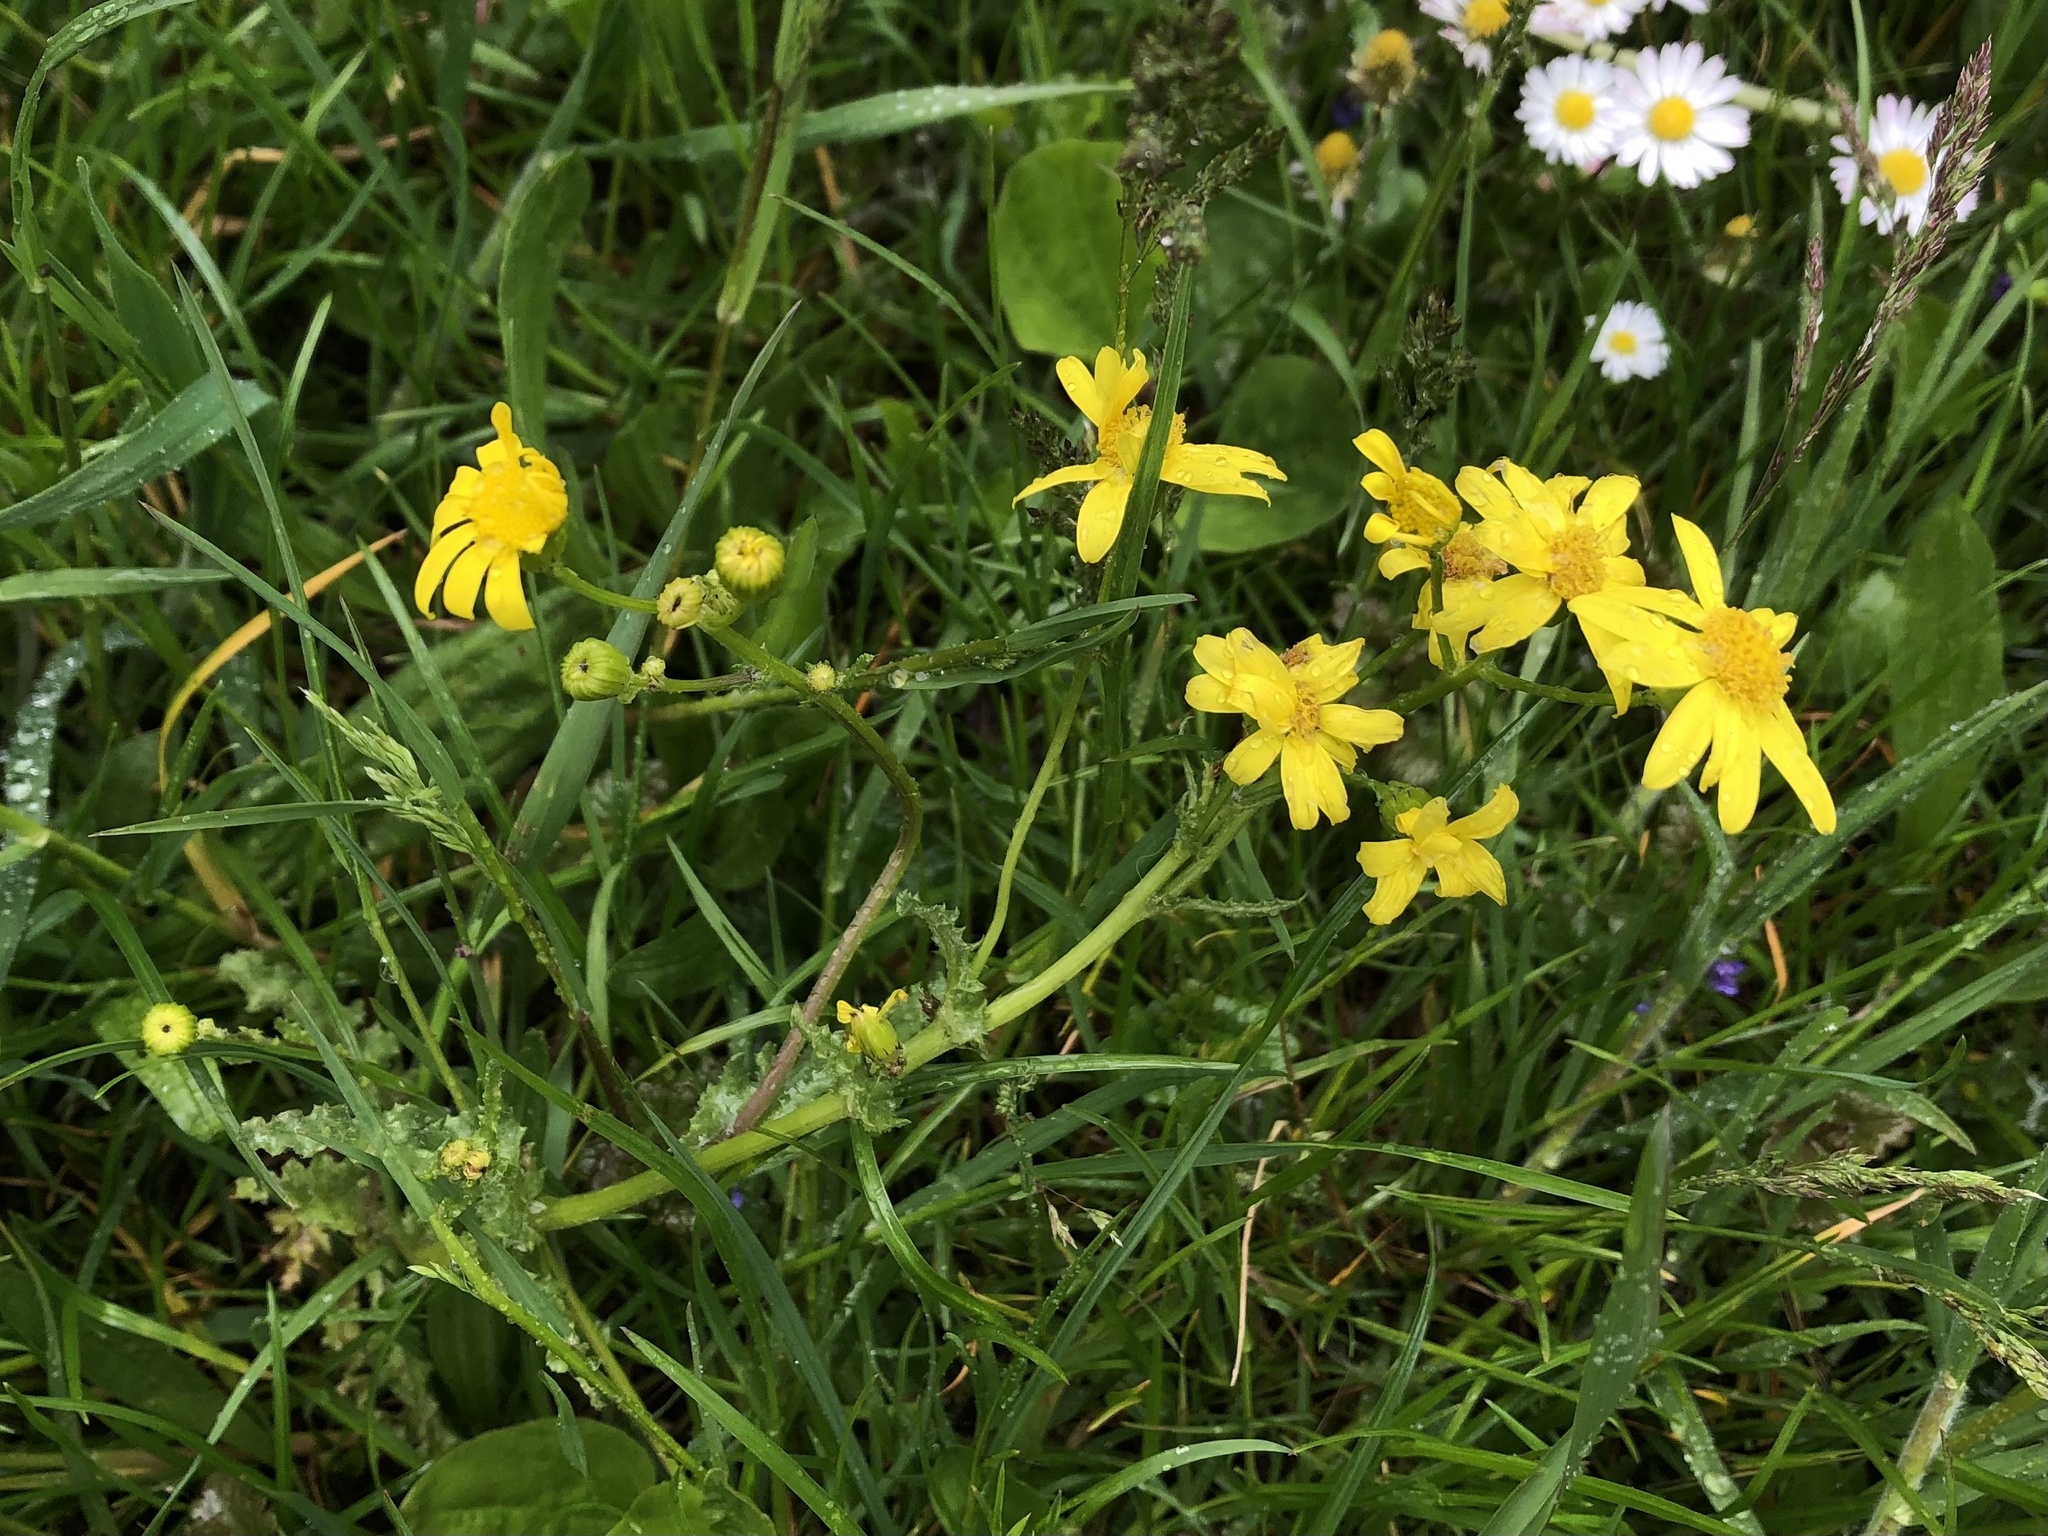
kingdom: Plantae
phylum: Tracheophyta
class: Magnoliopsida
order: Asterales
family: Asteraceae
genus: Senecio
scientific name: Senecio vernalis
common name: Eastern groundsel
